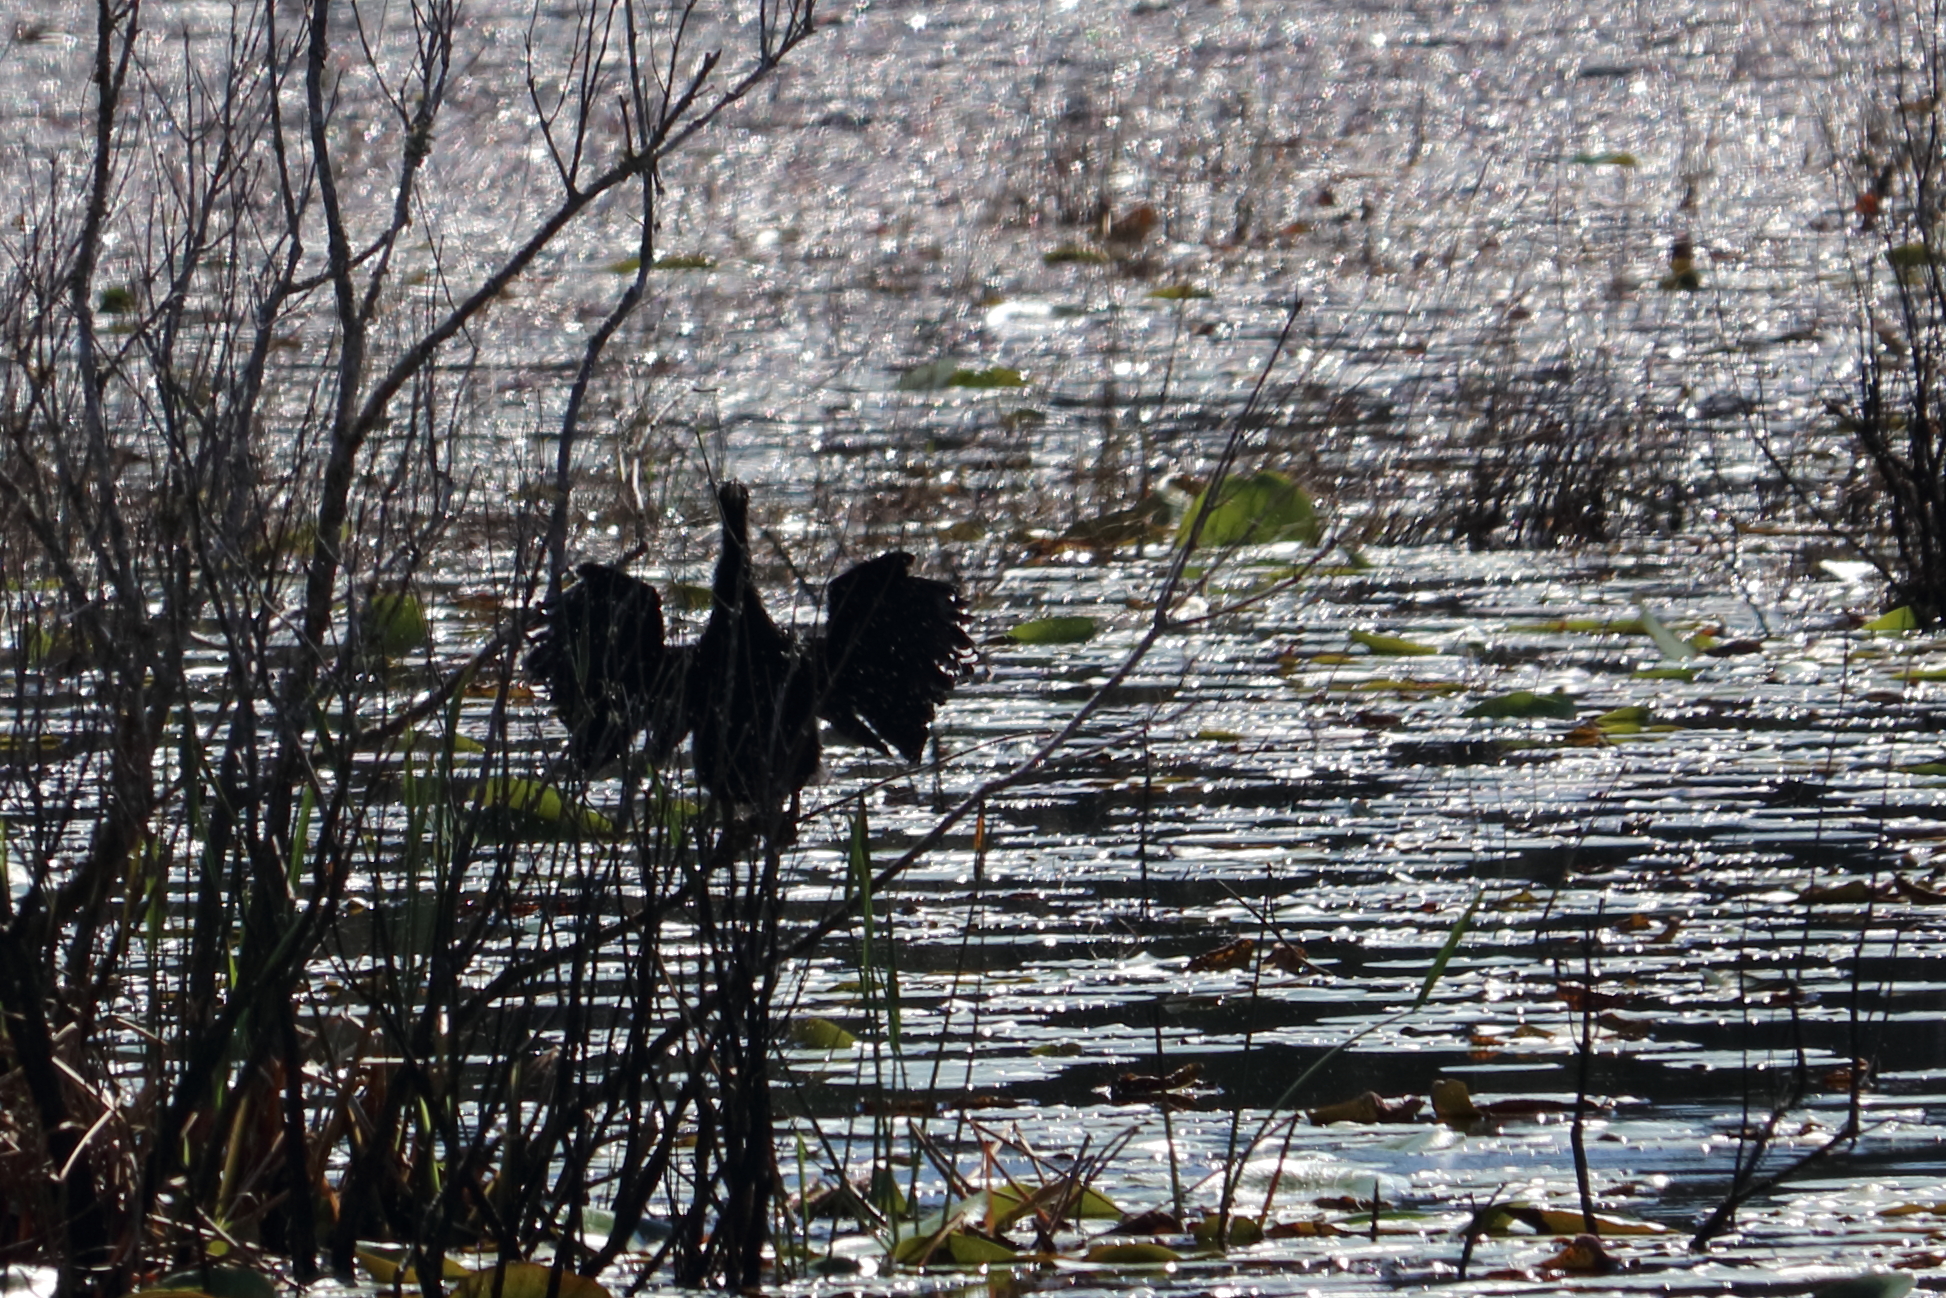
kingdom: Animalia
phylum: Chordata
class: Aves
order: Suliformes
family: Anhingidae
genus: Anhinga
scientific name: Anhinga anhinga
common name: Anhinga
